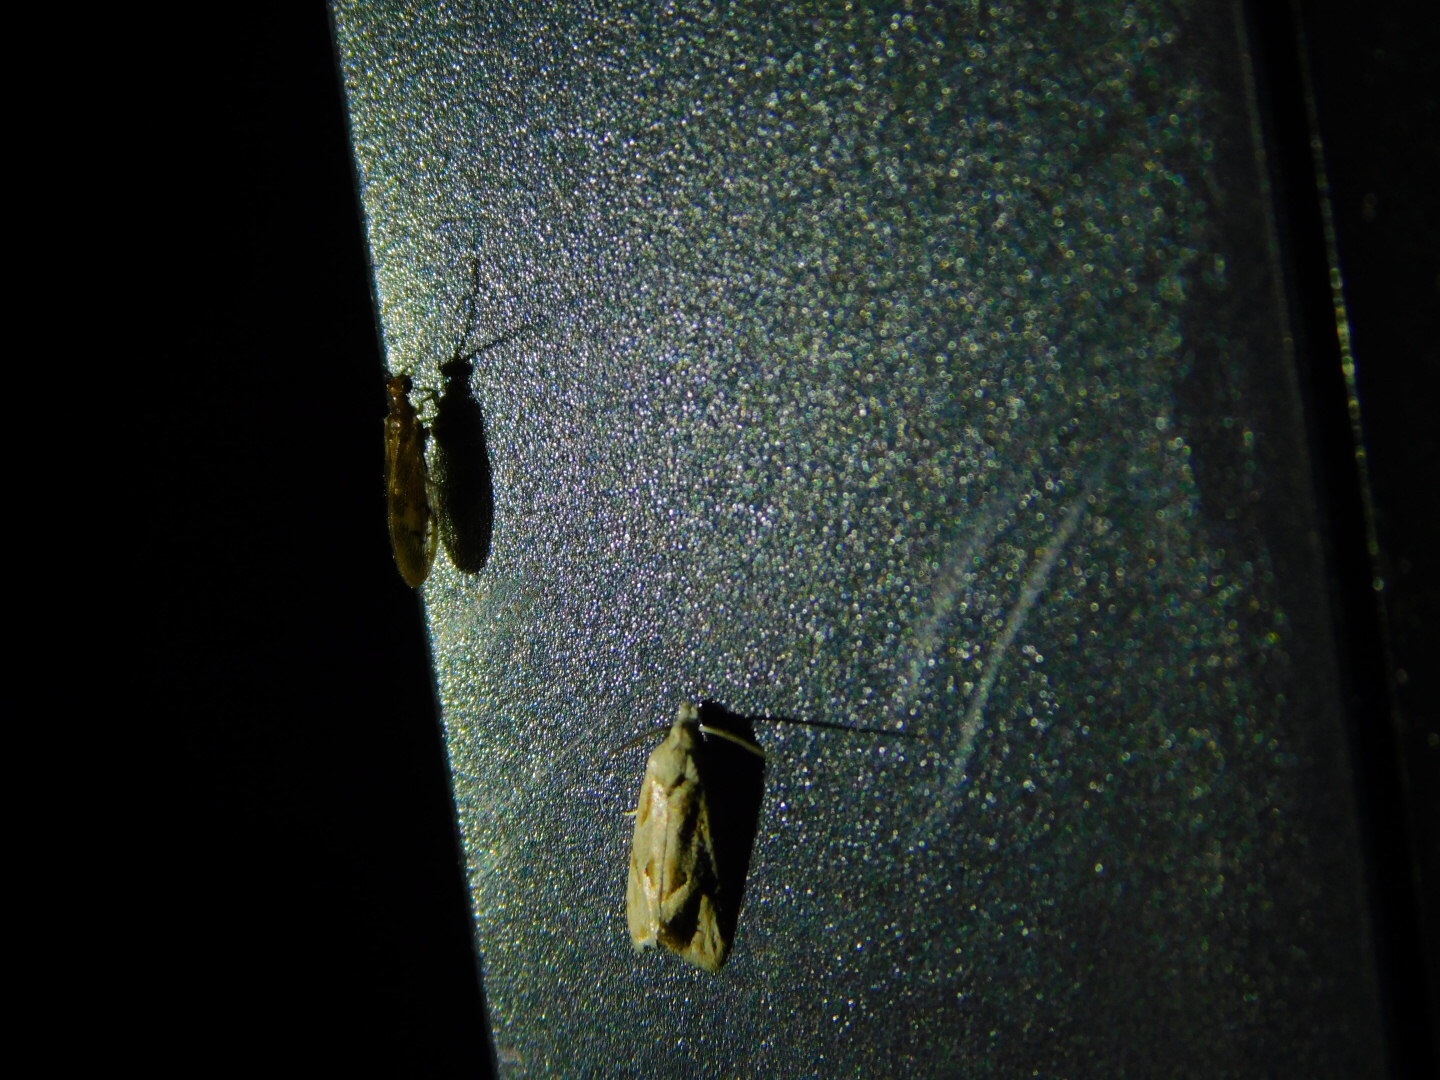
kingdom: Animalia
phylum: Arthropoda
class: Insecta
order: Neuroptera
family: Sisyridae
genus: Climacia
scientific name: Climacia areolaris
